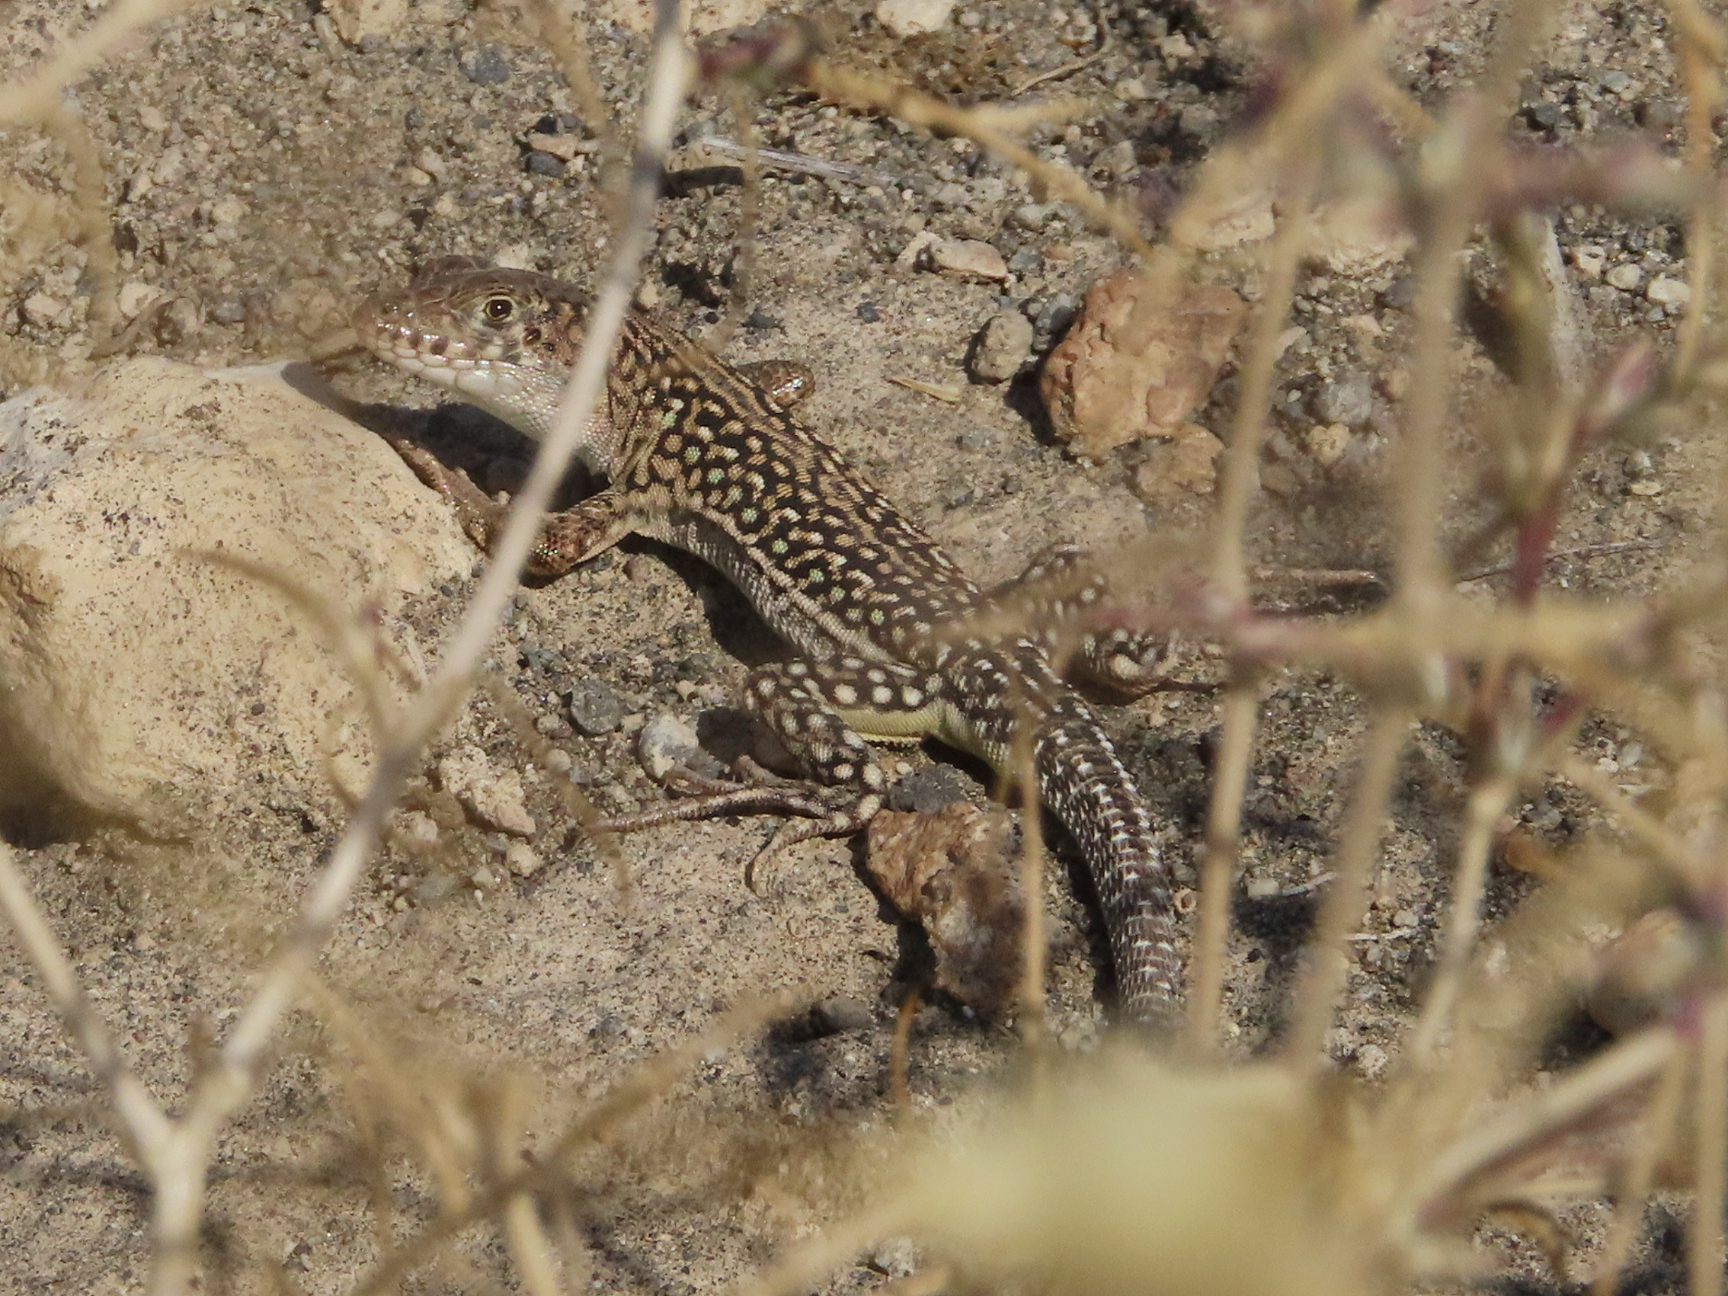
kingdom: Animalia
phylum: Chordata
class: Squamata
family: Lacertidae
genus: Eremias
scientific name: Eremias strauchi
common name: Strauch's racerunner
